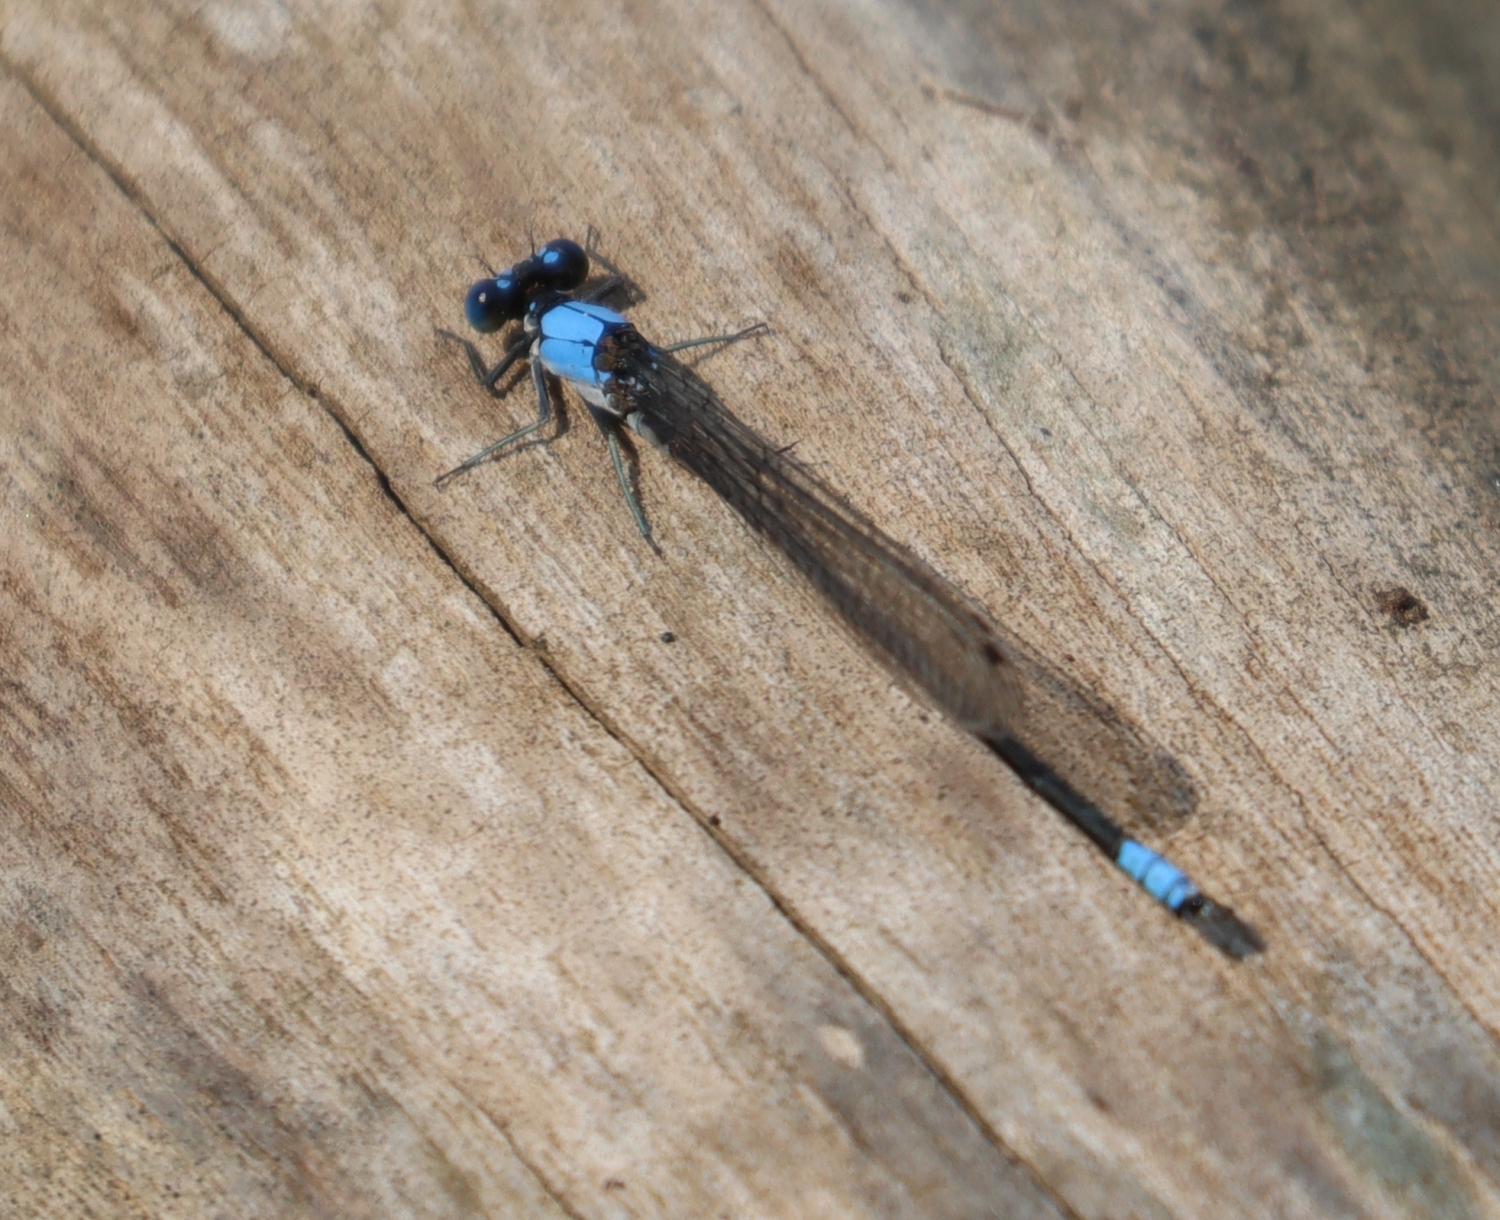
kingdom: Animalia
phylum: Arthropoda
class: Insecta
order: Odonata
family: Coenagrionidae
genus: Argia
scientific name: Argia apicalis
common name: Blue-fronted dancer
